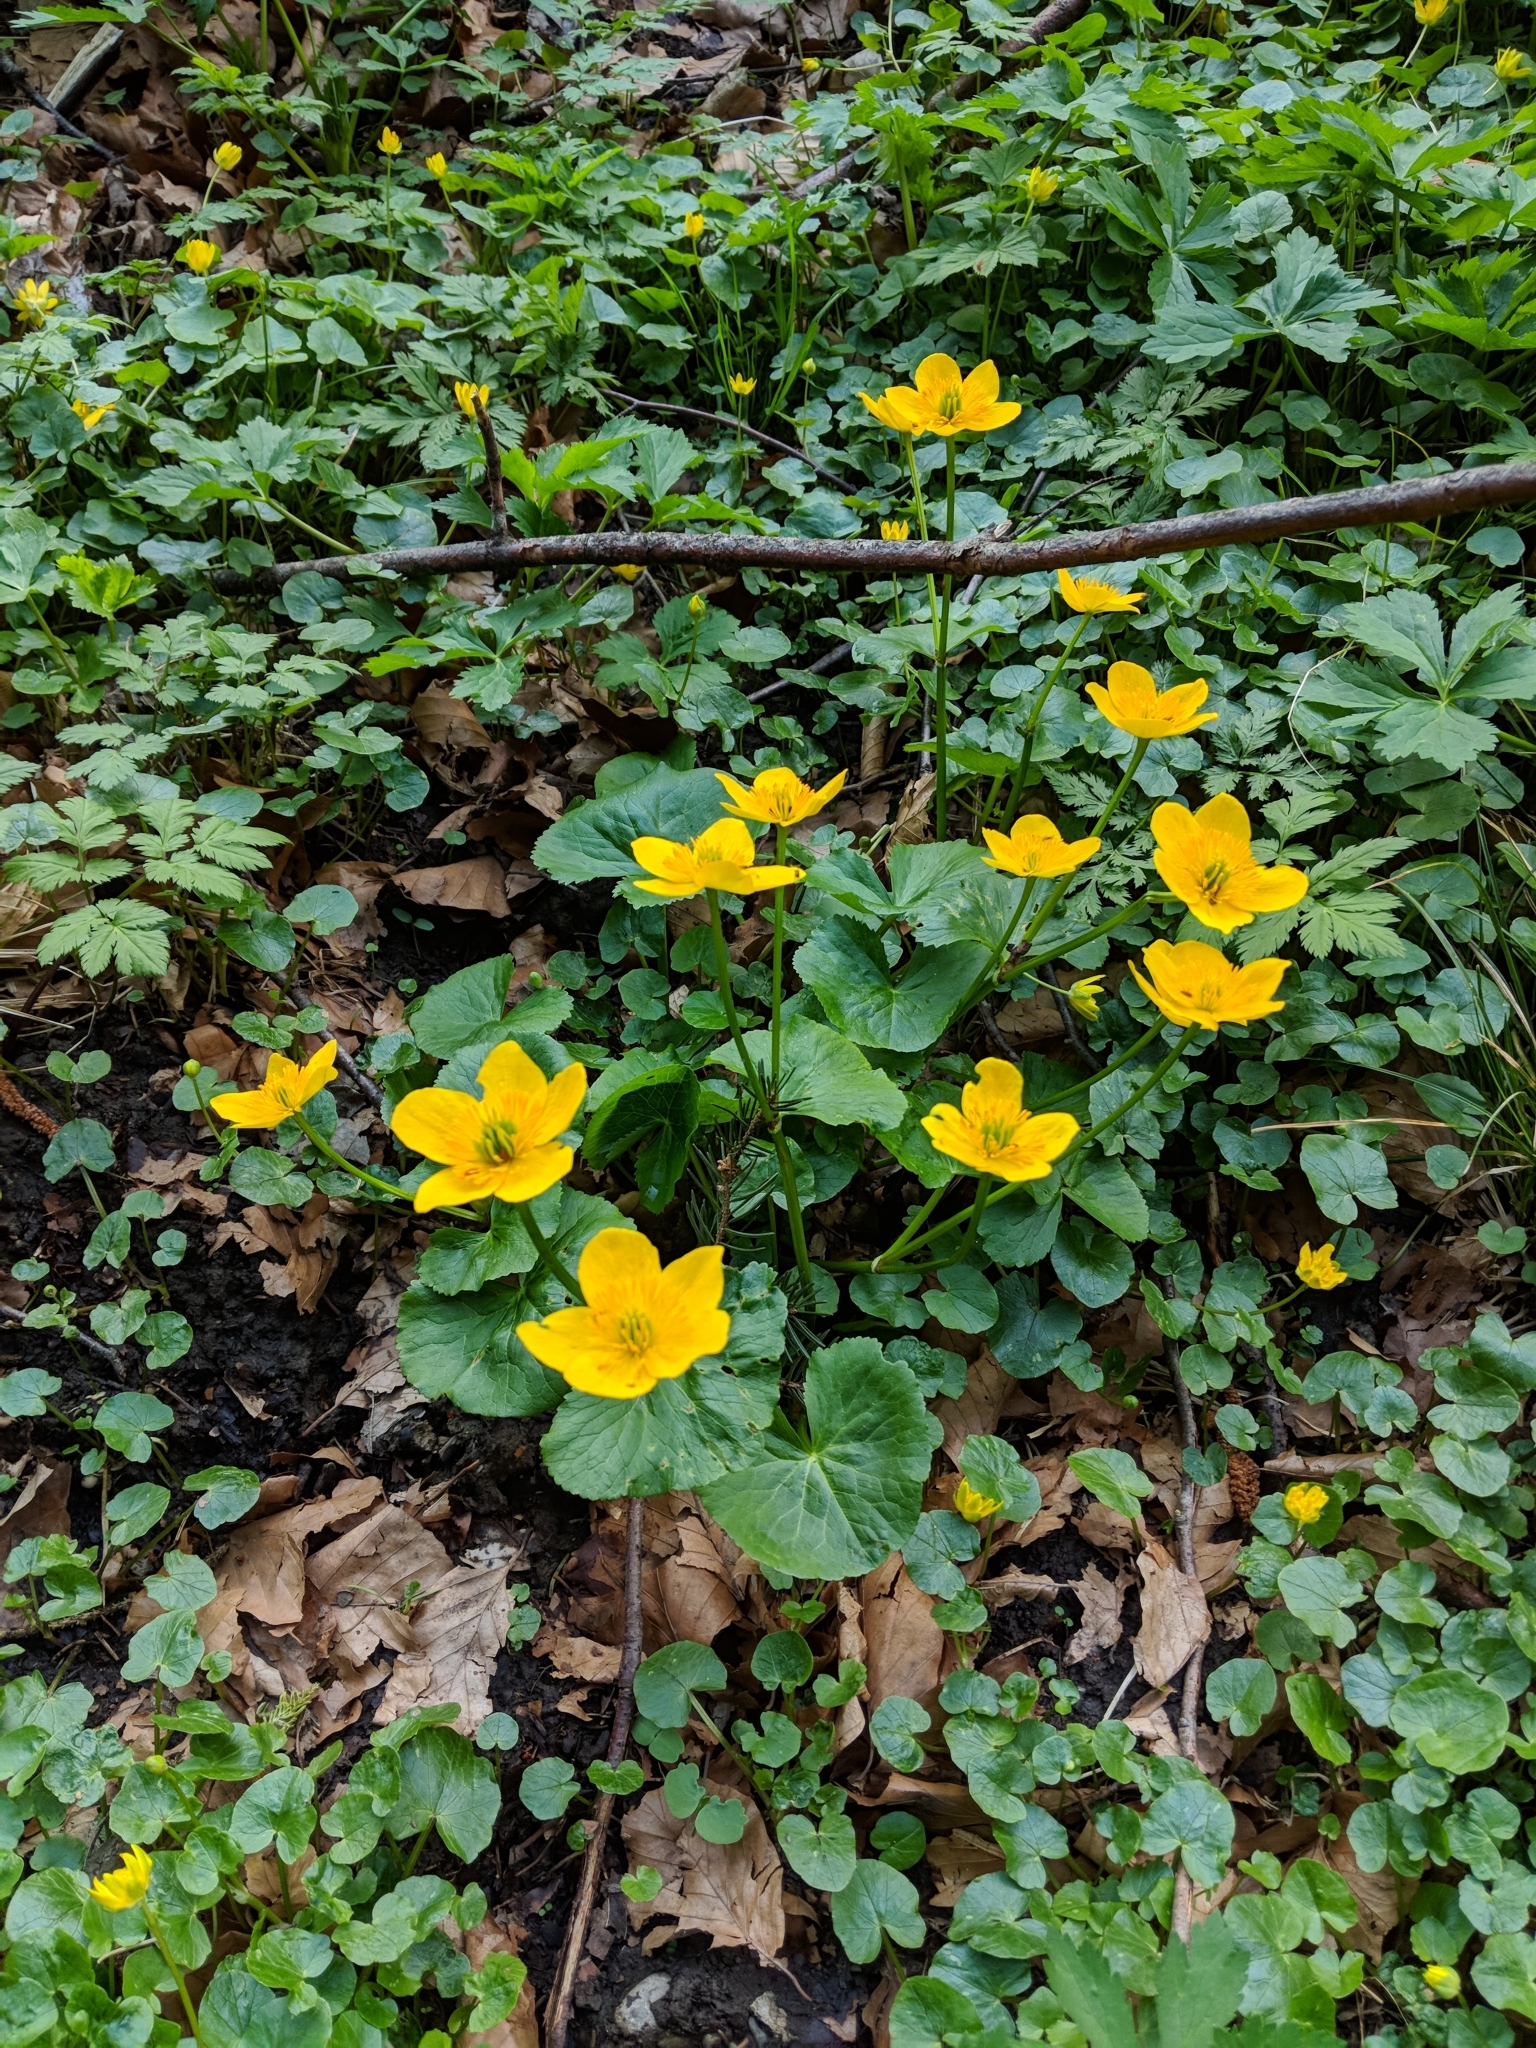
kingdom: Plantae
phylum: Tracheophyta
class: Magnoliopsida
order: Ranunculales
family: Ranunculaceae
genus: Caltha
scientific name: Caltha palustris
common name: Marsh marigold
